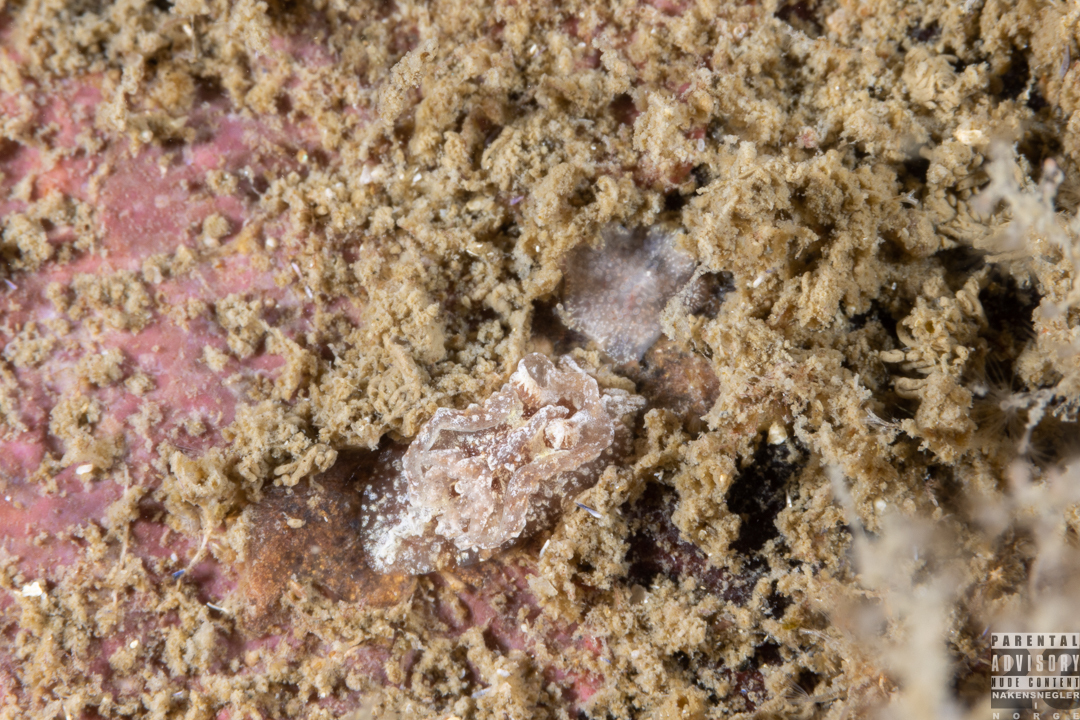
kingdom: Animalia
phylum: Mollusca
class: Gastropoda
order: Nudibranchia
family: Goniodorididae
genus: Pelagella
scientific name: Pelagella castanea
